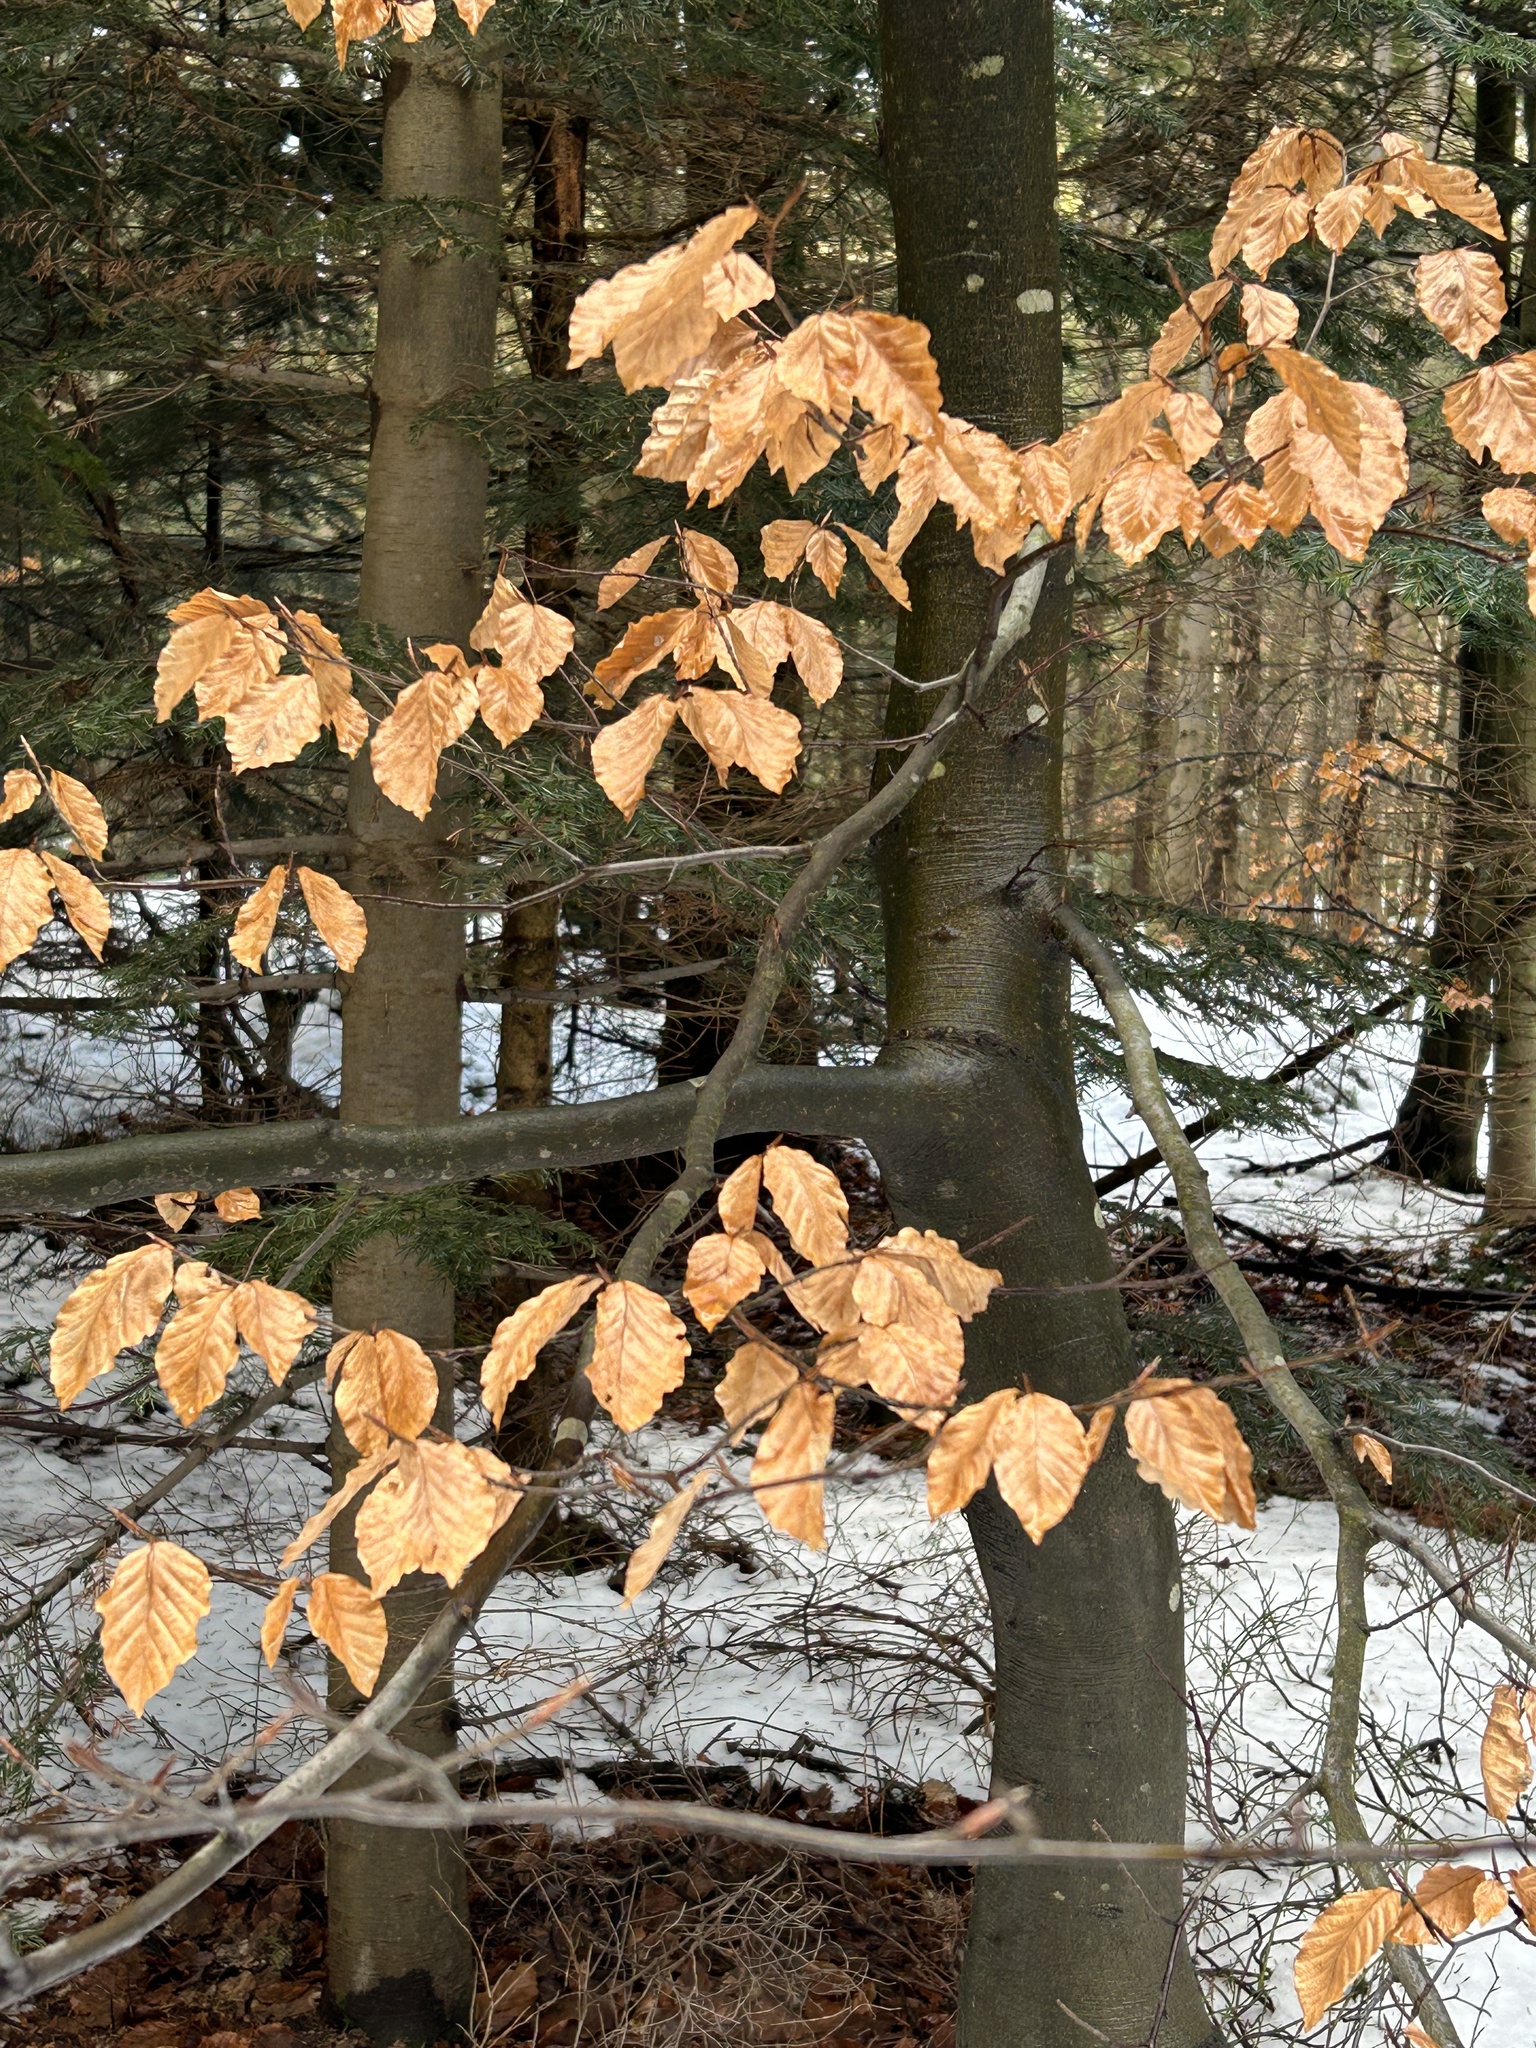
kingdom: Plantae
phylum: Tracheophyta
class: Magnoliopsida
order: Fagales
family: Fagaceae
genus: Fagus
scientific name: Fagus sylvatica
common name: Beech
